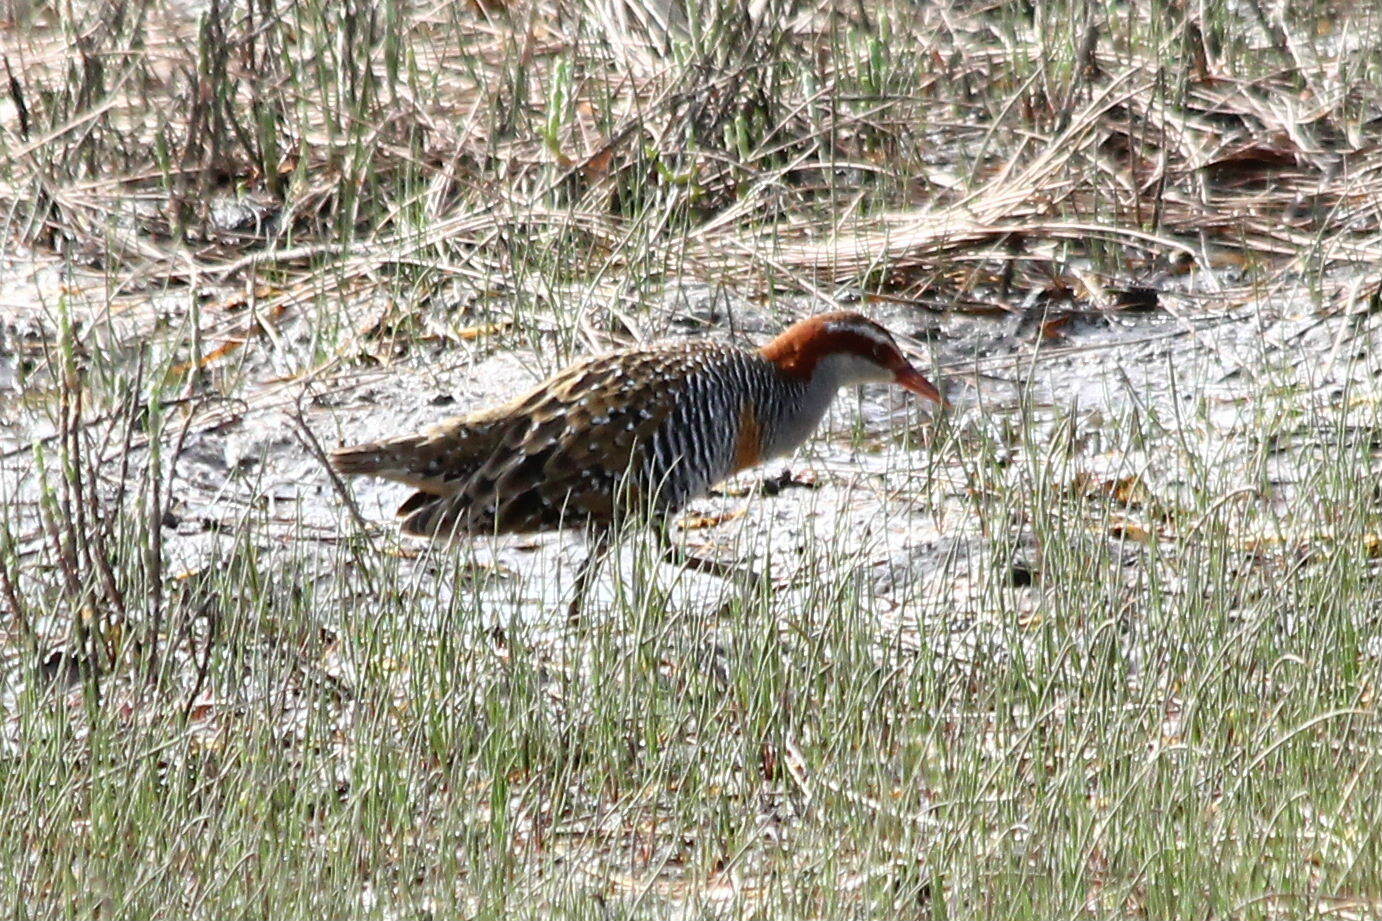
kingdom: Animalia
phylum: Chordata
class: Aves
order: Gruiformes
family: Rallidae
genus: Gallirallus
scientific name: Gallirallus philippensis
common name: Buff-banded rail
